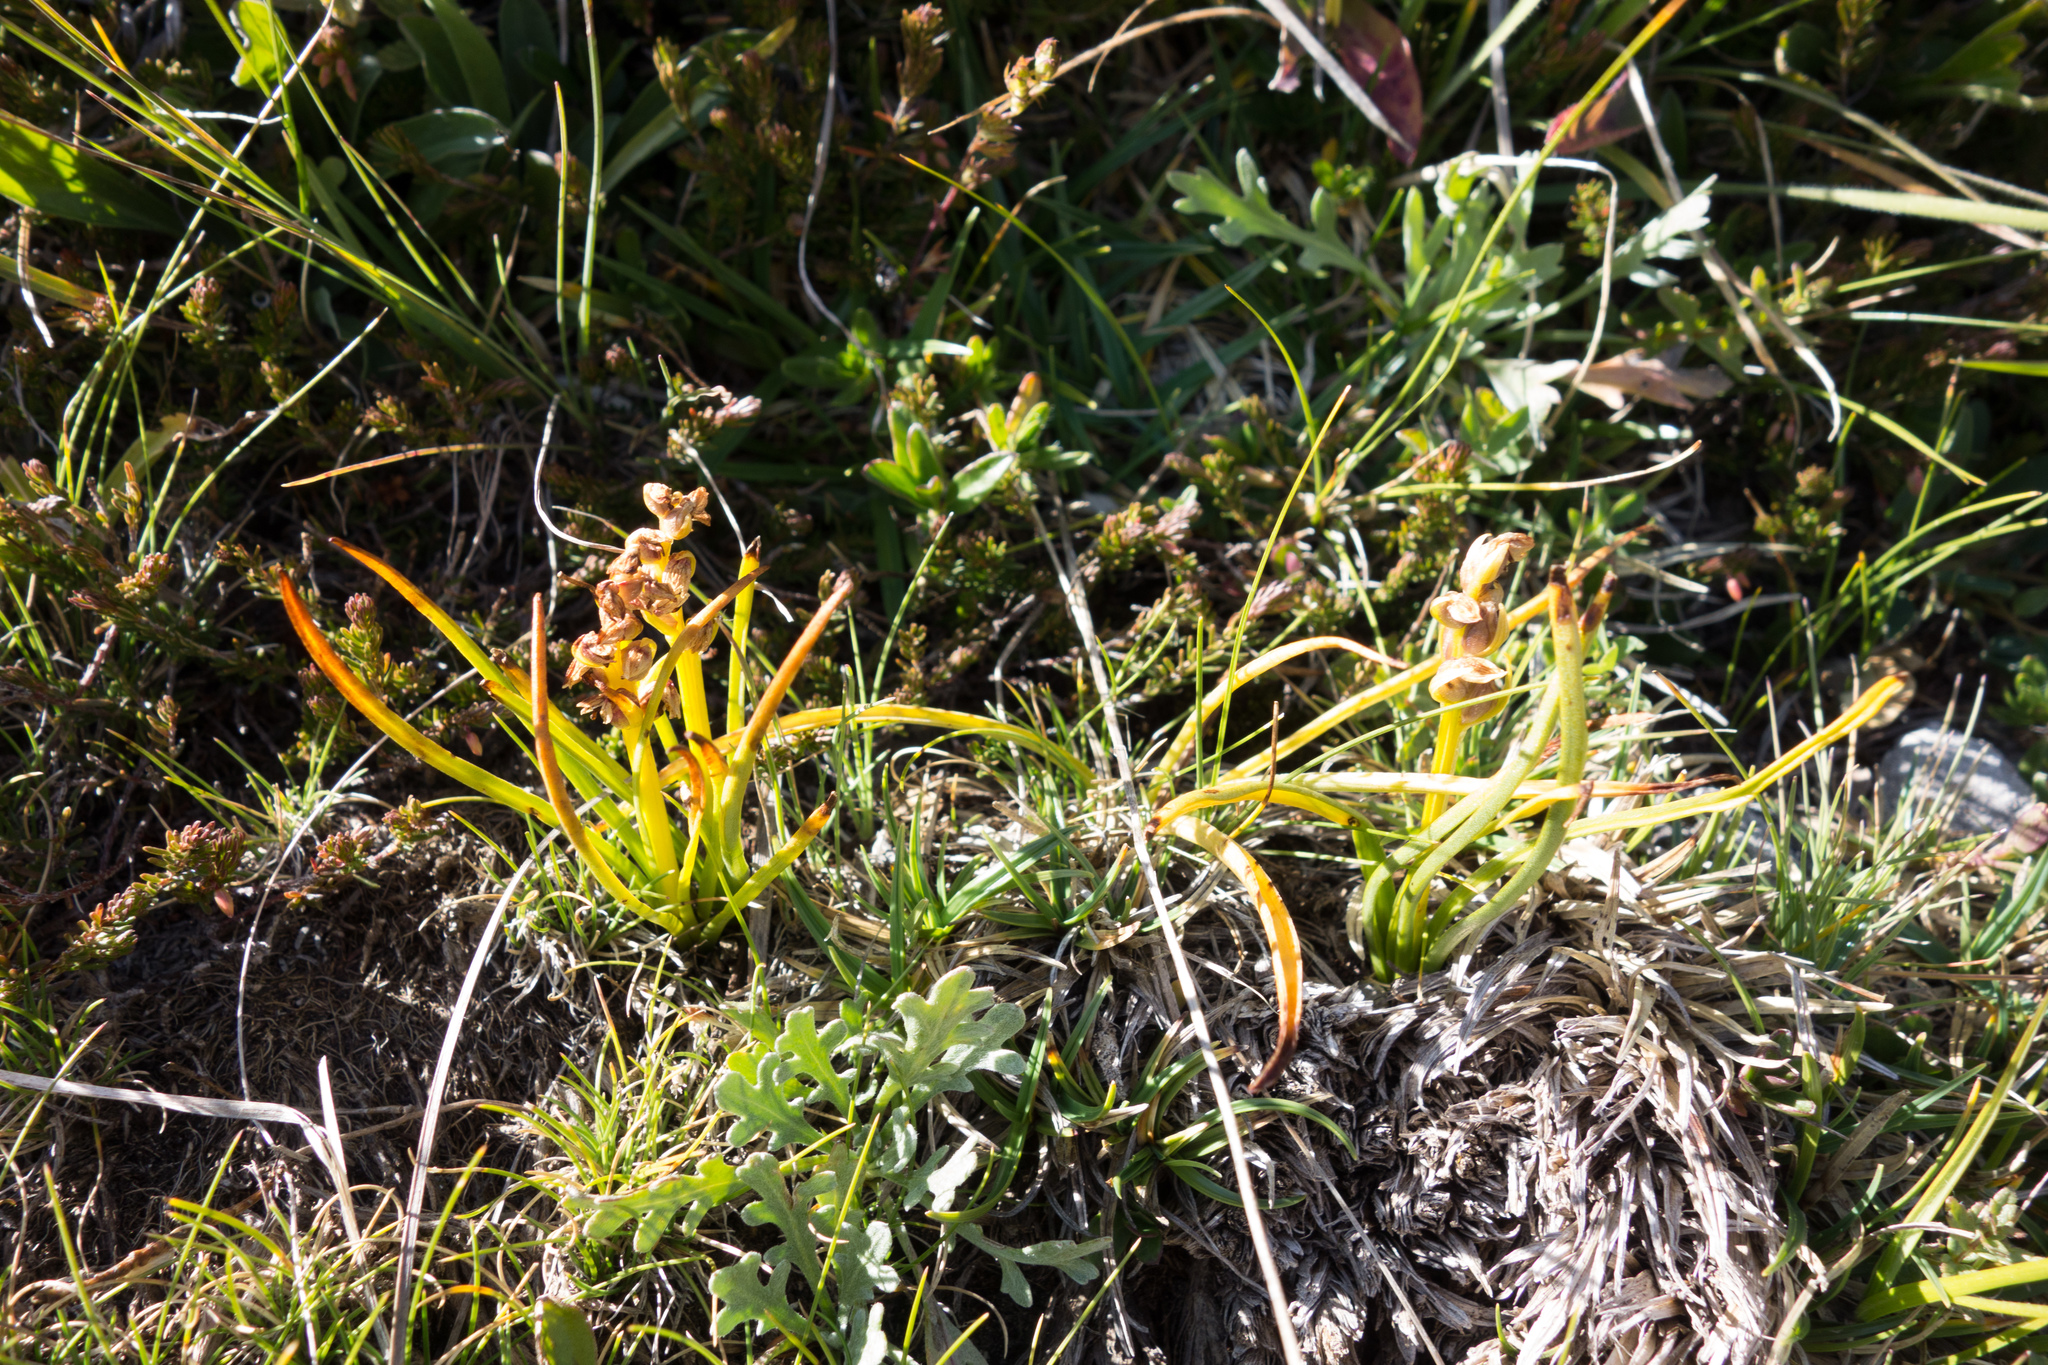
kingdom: Plantae
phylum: Tracheophyta
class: Liliopsida
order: Asparagales
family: Orchidaceae
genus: Chamorchis
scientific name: Chamorchis alpina
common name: Alpine chamorchis
